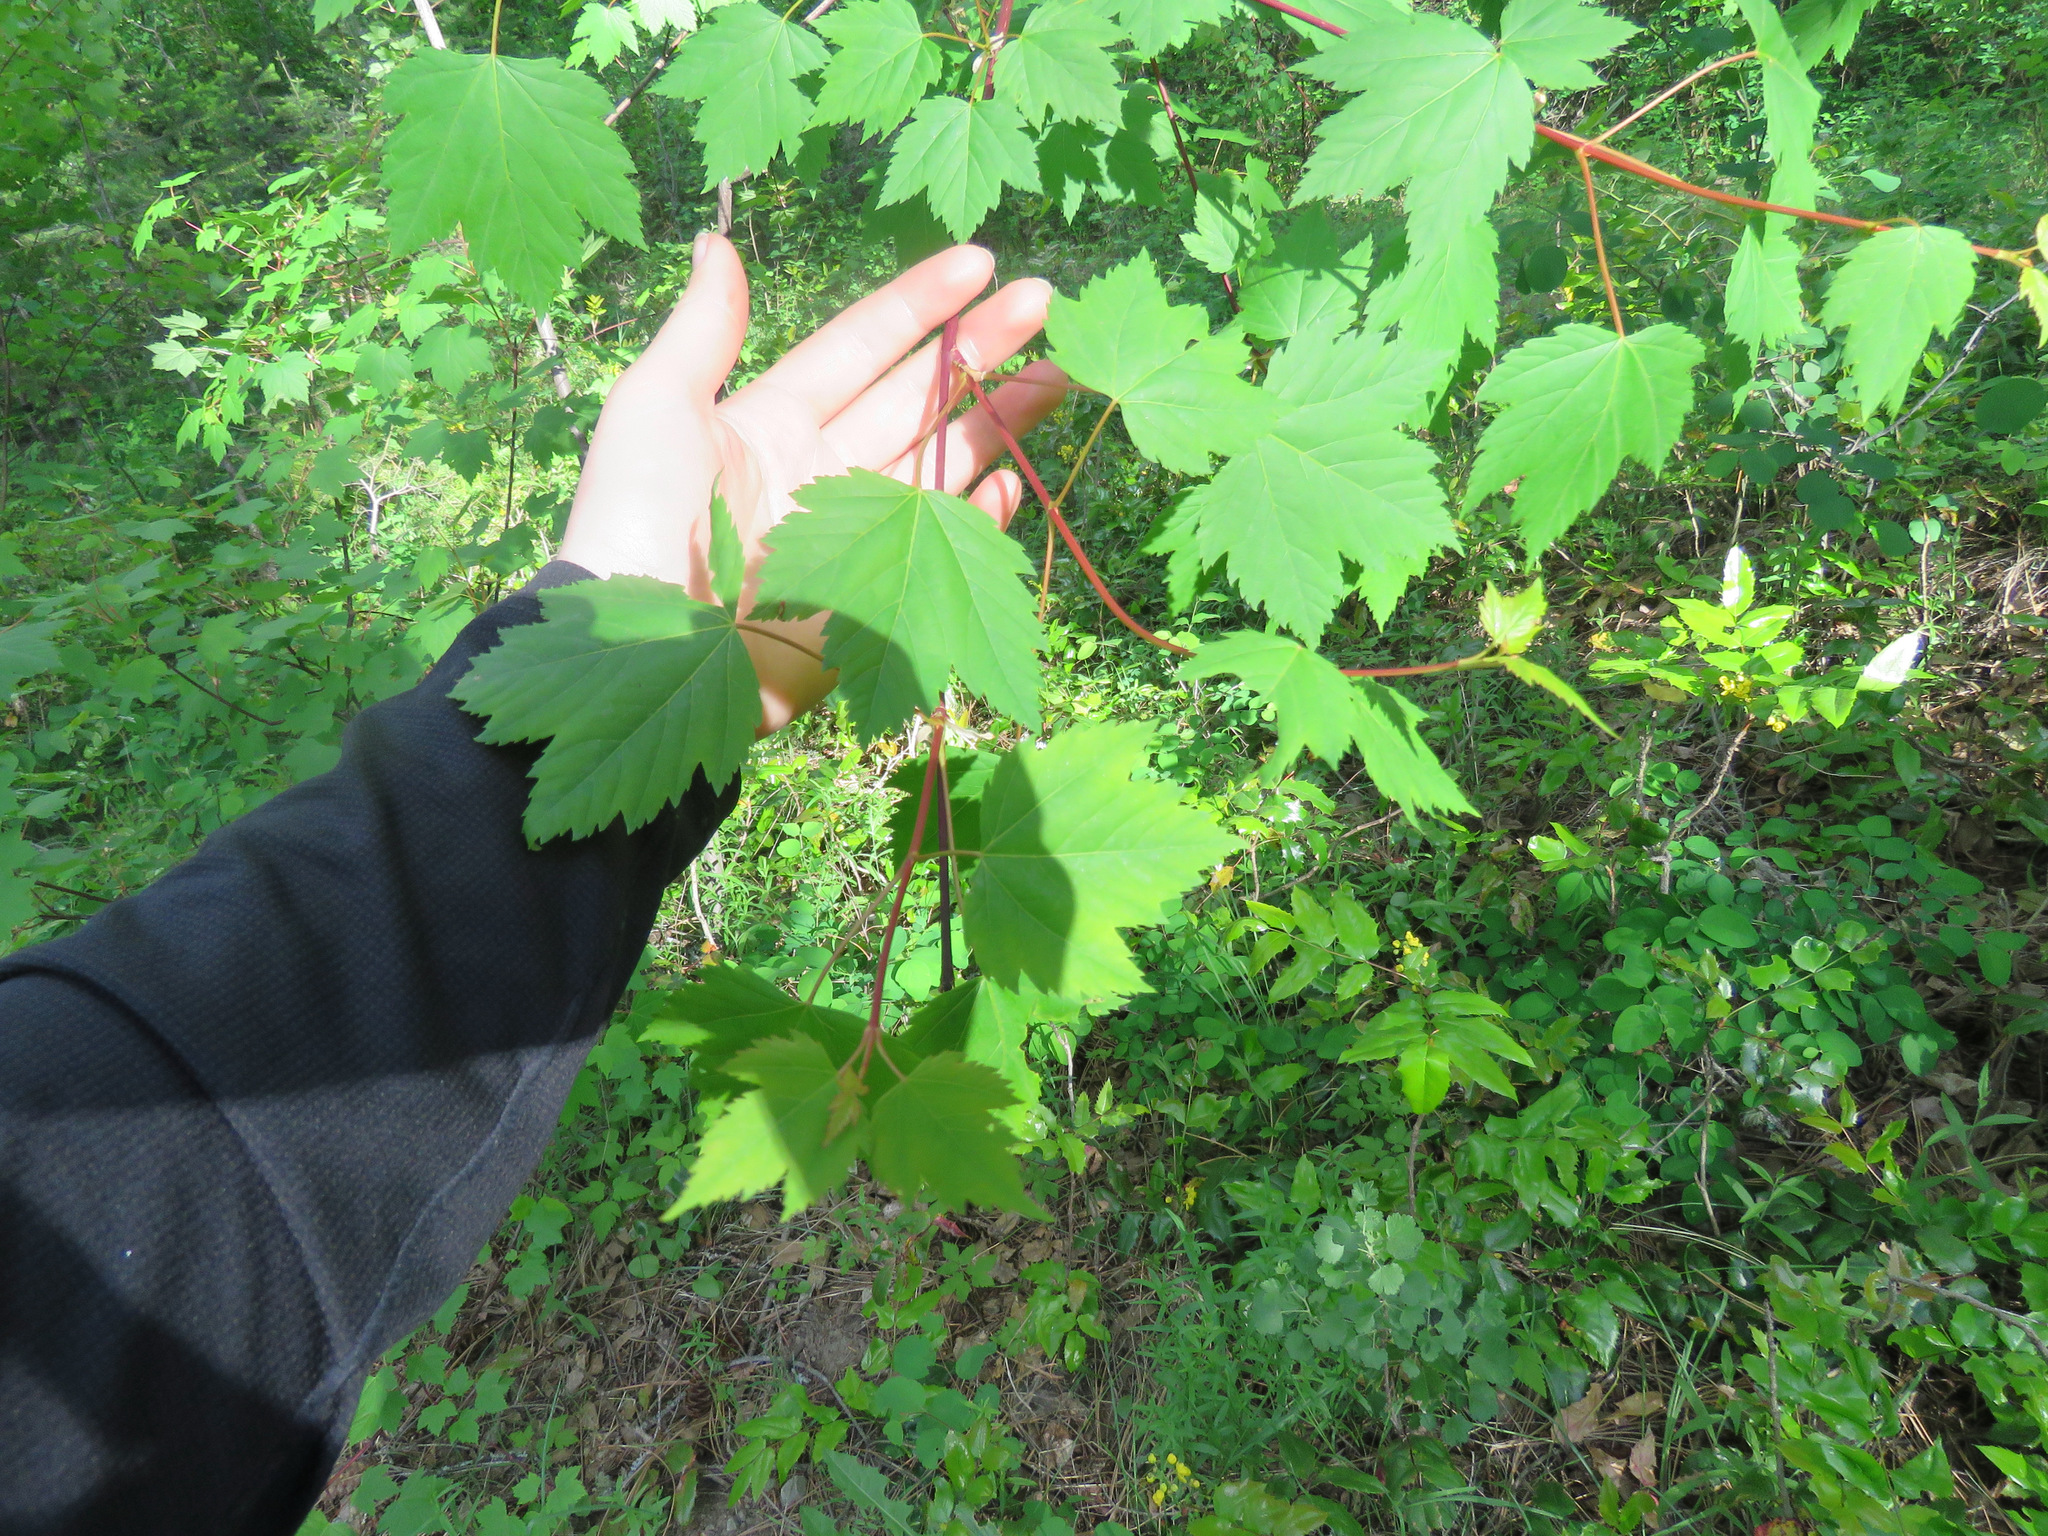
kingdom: Plantae
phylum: Tracheophyta
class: Magnoliopsida
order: Sapindales
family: Sapindaceae
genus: Acer
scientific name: Acer glabrum
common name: Rocky mountain maple
